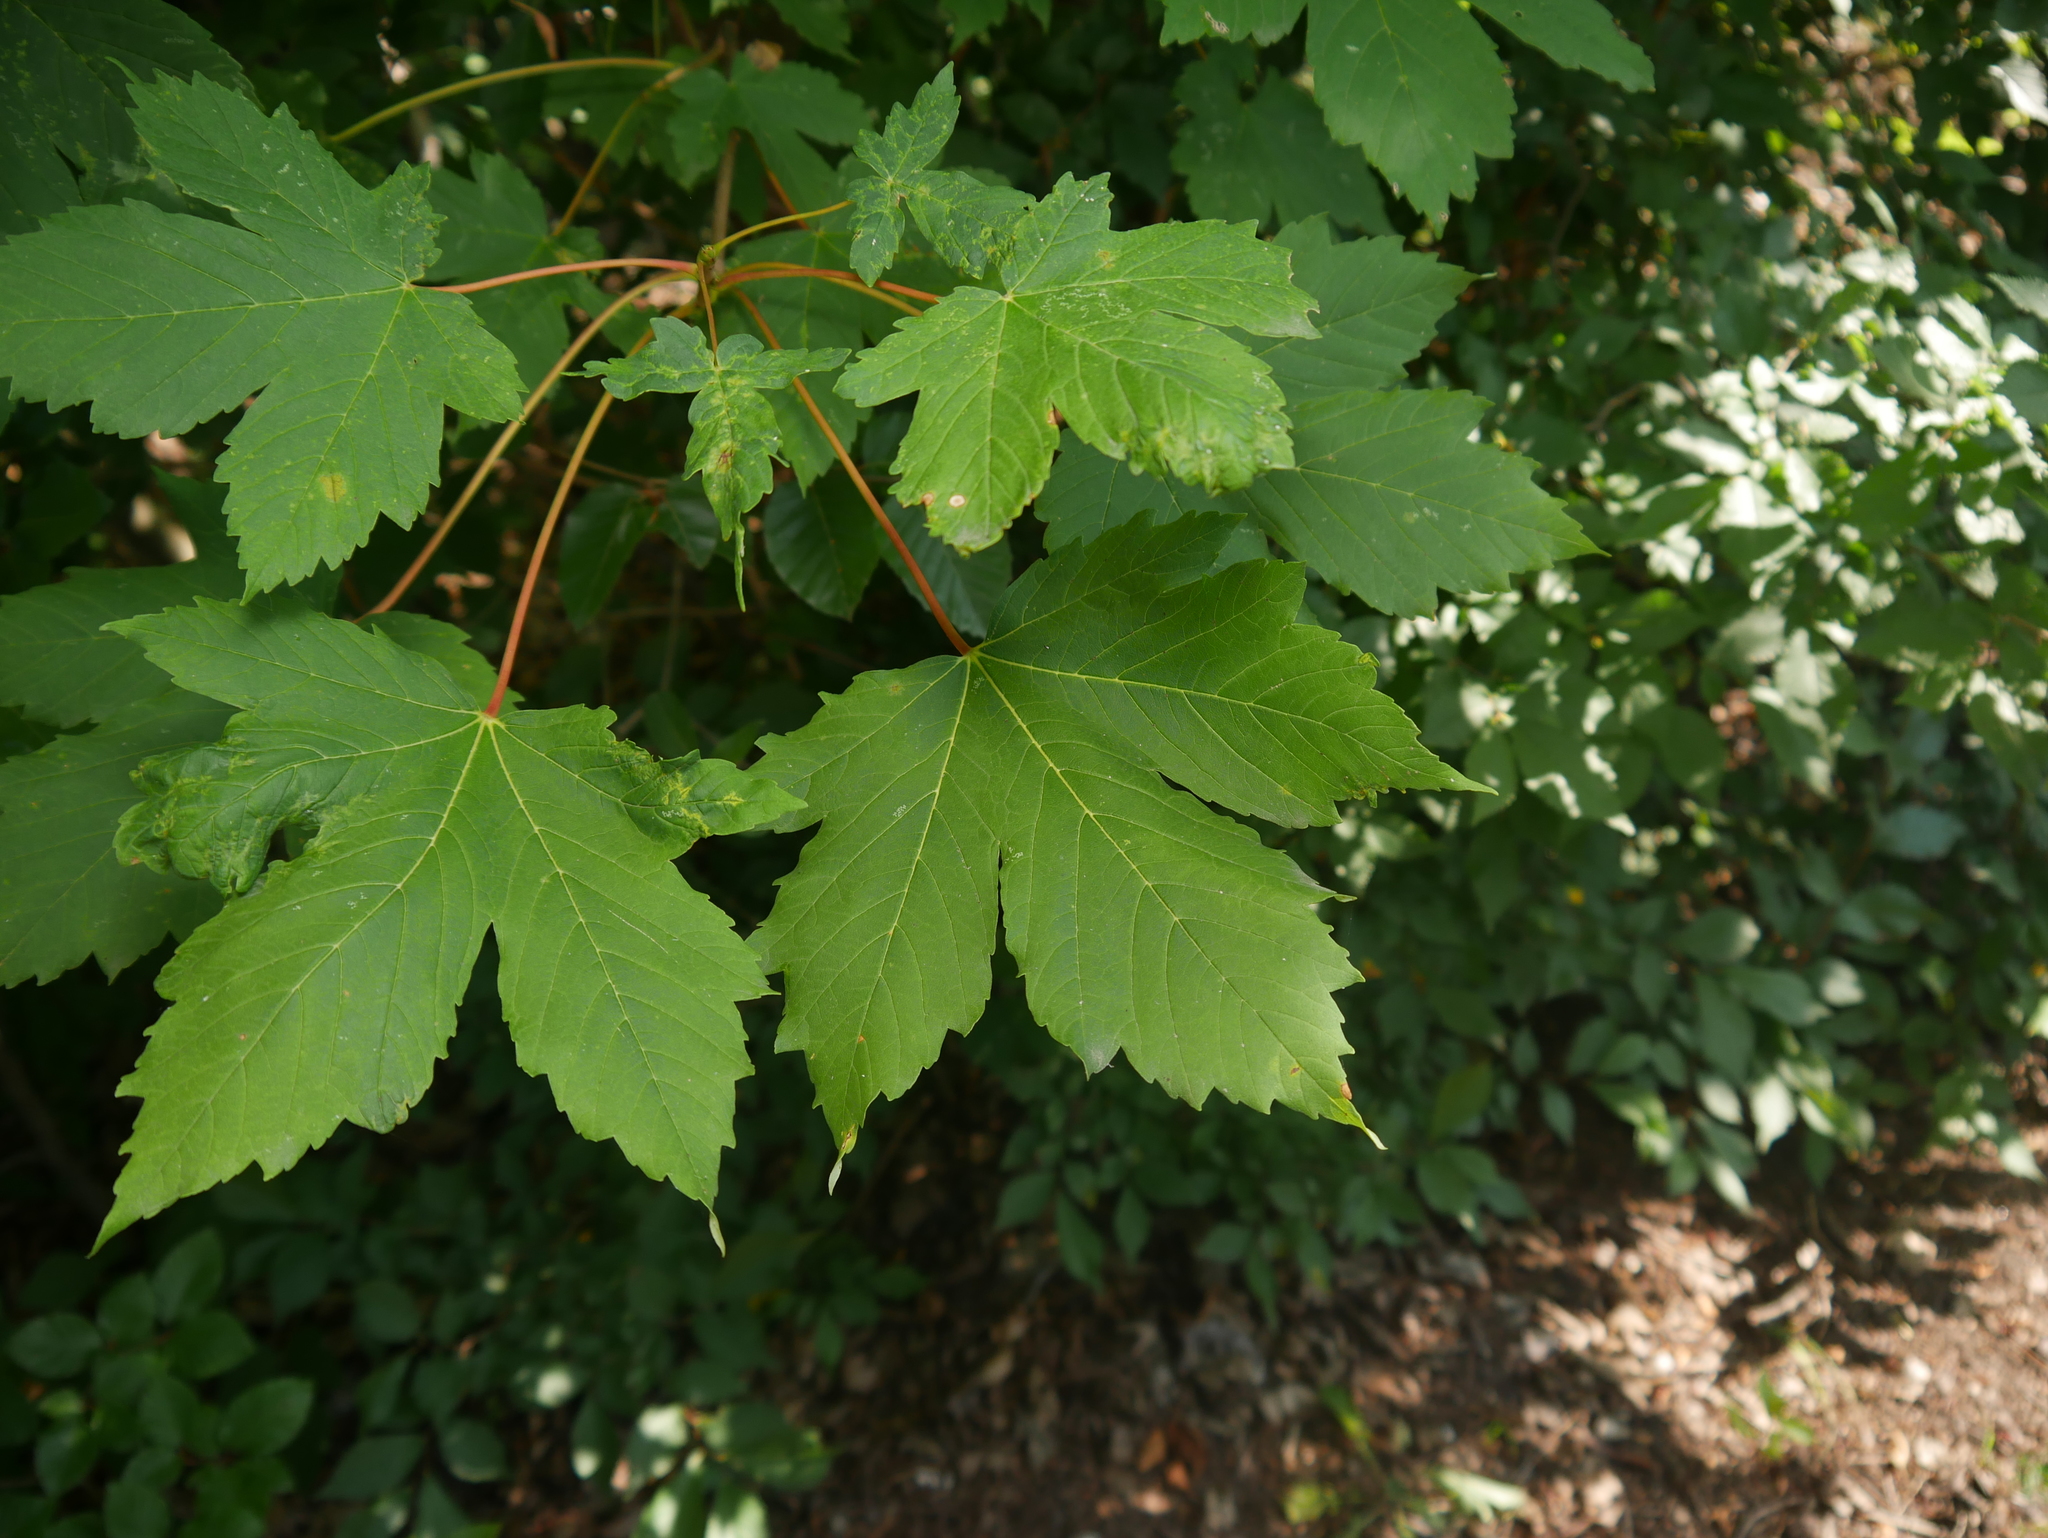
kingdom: Plantae
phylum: Tracheophyta
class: Magnoliopsida
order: Sapindales
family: Sapindaceae
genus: Acer
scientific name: Acer pseudoplatanus
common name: Sycamore
